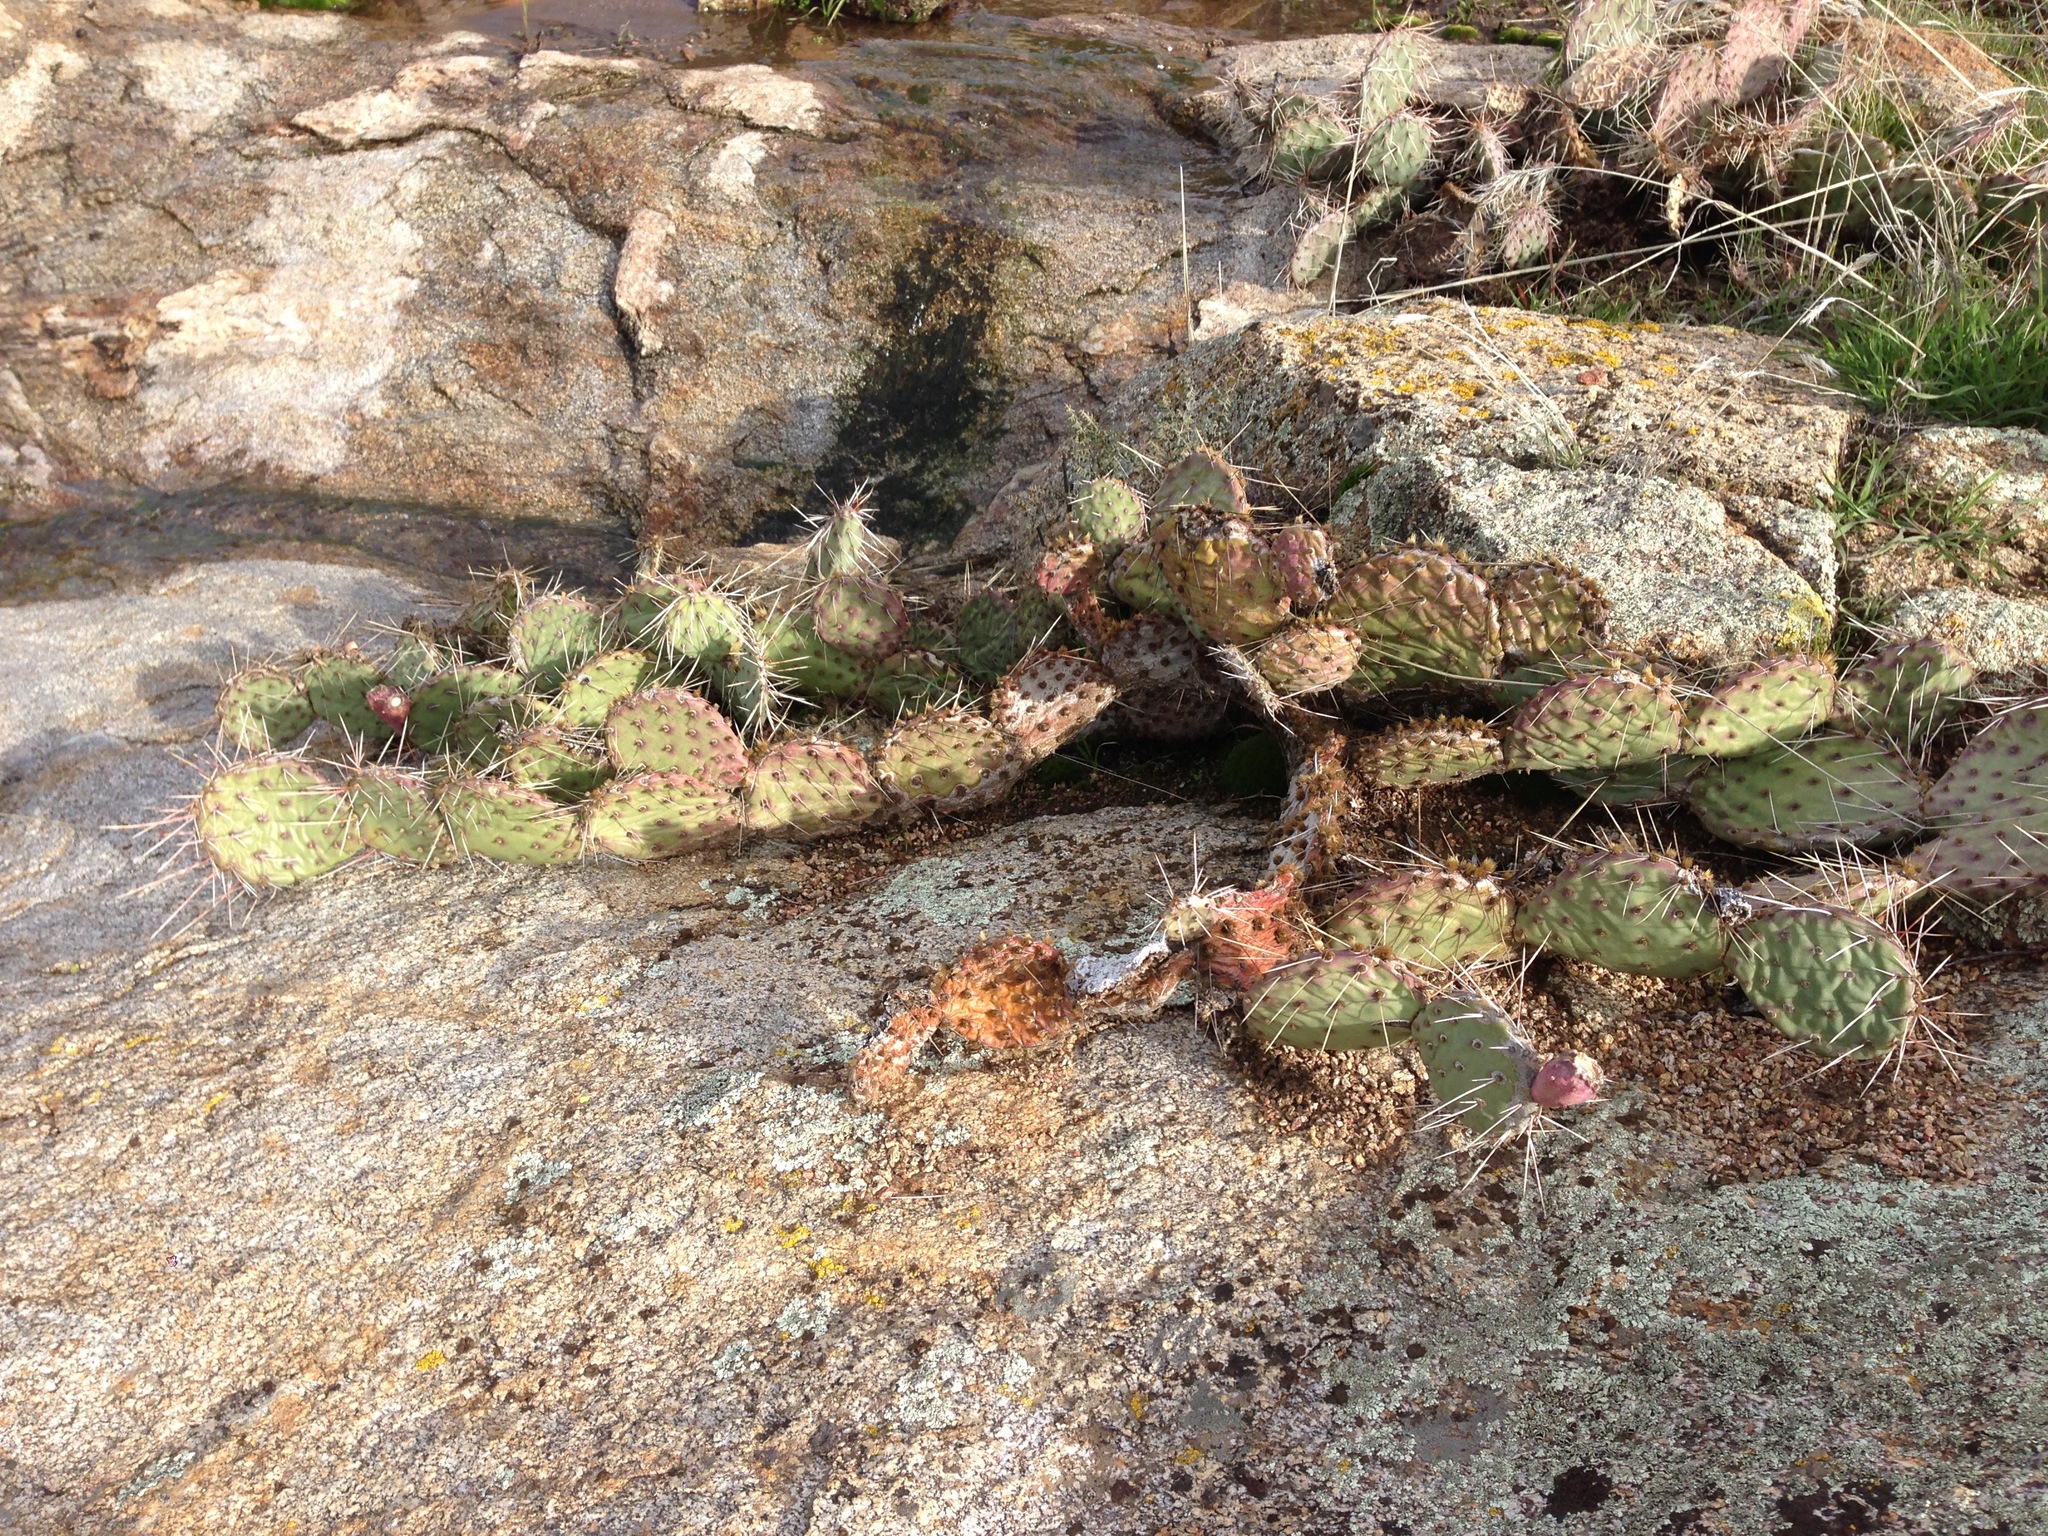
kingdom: Plantae
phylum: Tracheophyta
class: Magnoliopsida
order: Caryophyllales
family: Cactaceae
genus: Opuntia
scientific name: Opuntia phaeacantha
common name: New mexico prickly-pear
